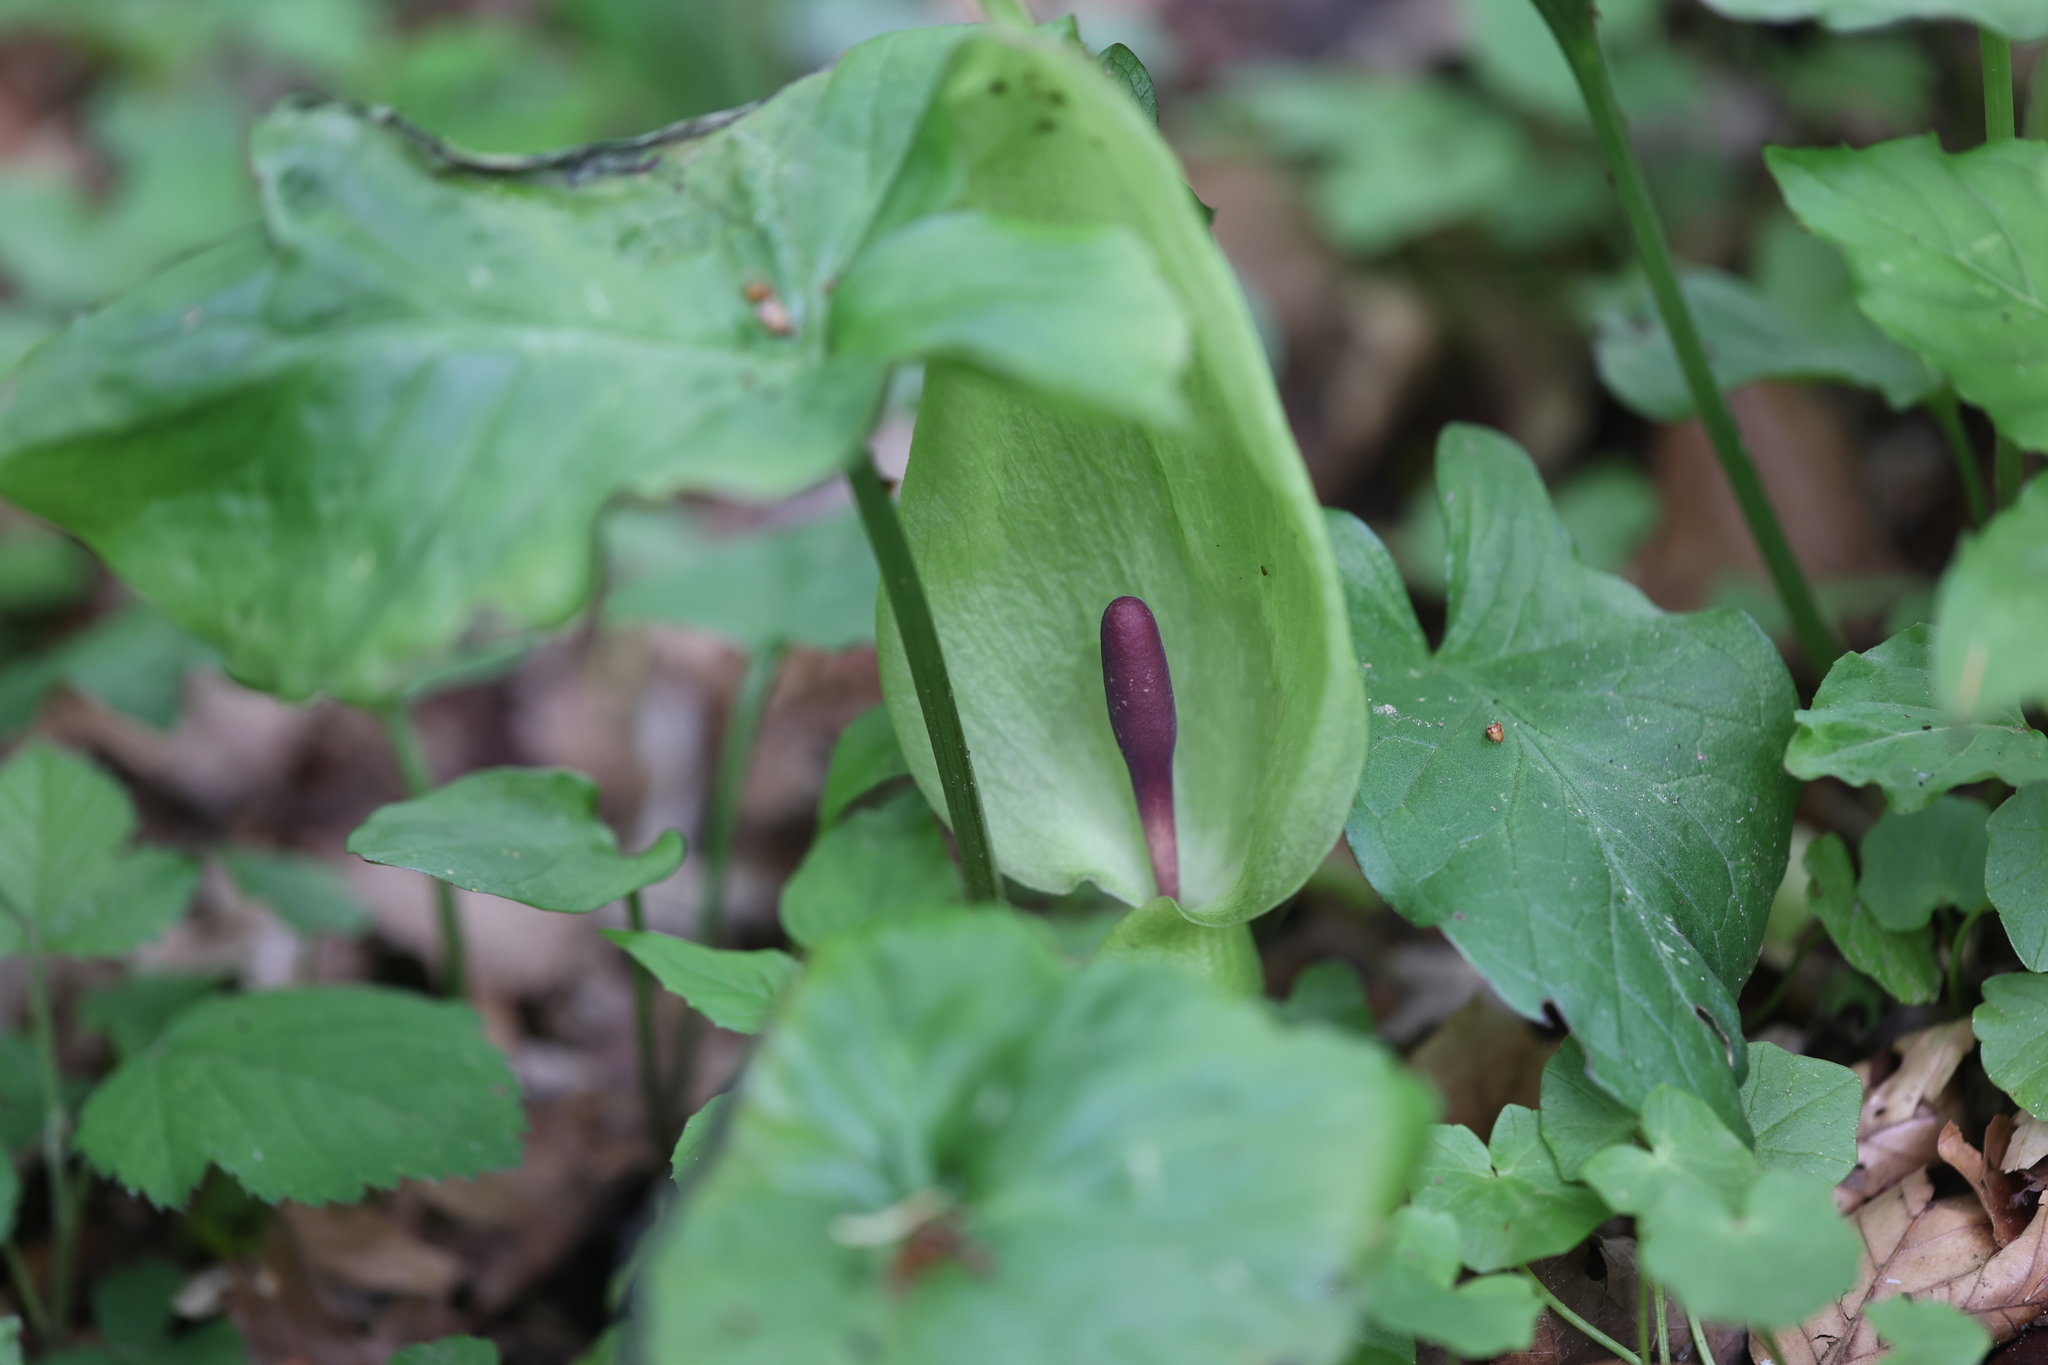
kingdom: Plantae
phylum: Tracheophyta
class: Liliopsida
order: Alismatales
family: Araceae
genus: Arum
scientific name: Arum maculatum
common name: Lords-and-ladies
